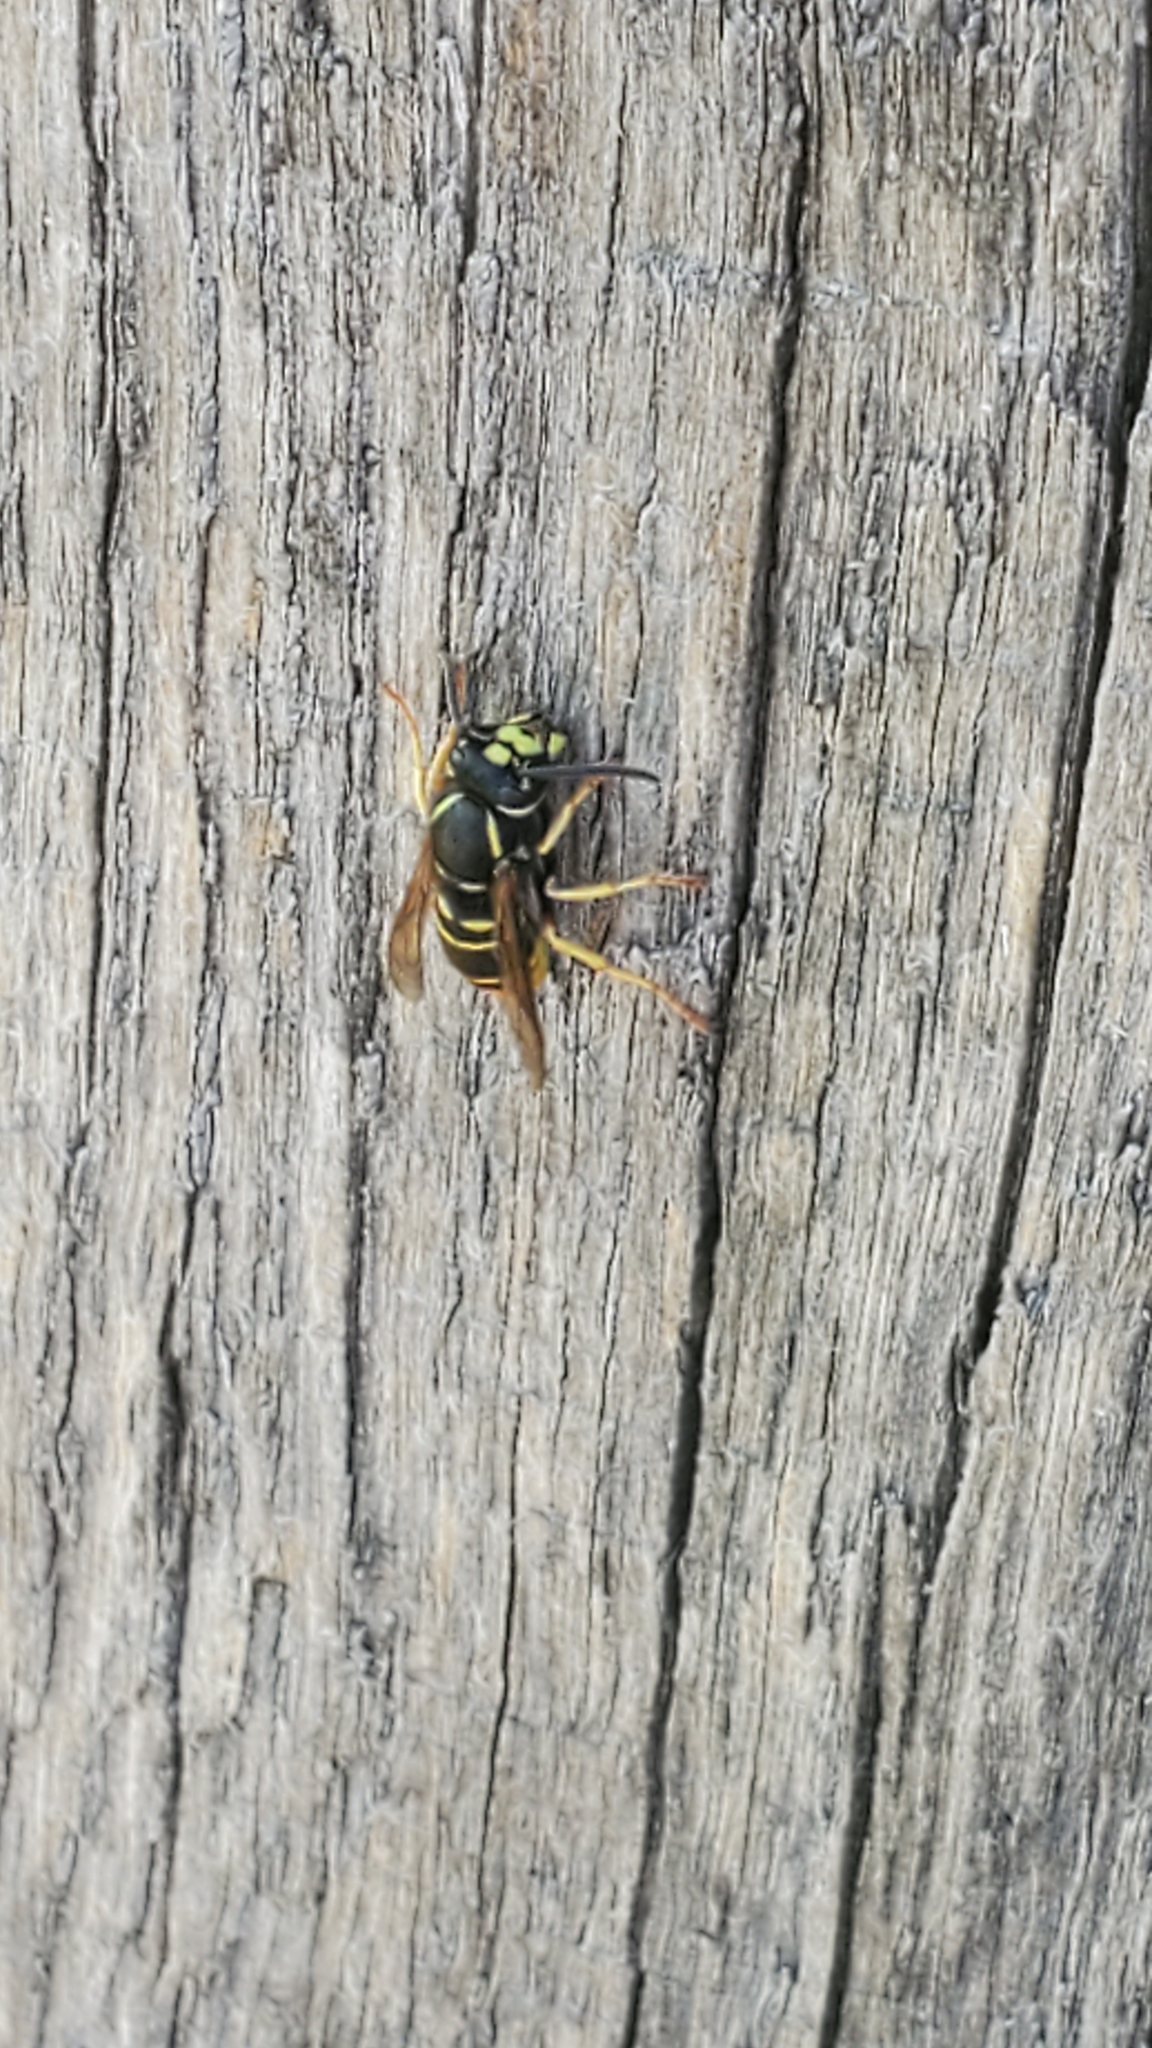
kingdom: Animalia
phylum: Arthropoda
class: Insecta
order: Hymenoptera
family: Vespidae
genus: Vespula
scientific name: Vespula vidua
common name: Widow yellowjacket
